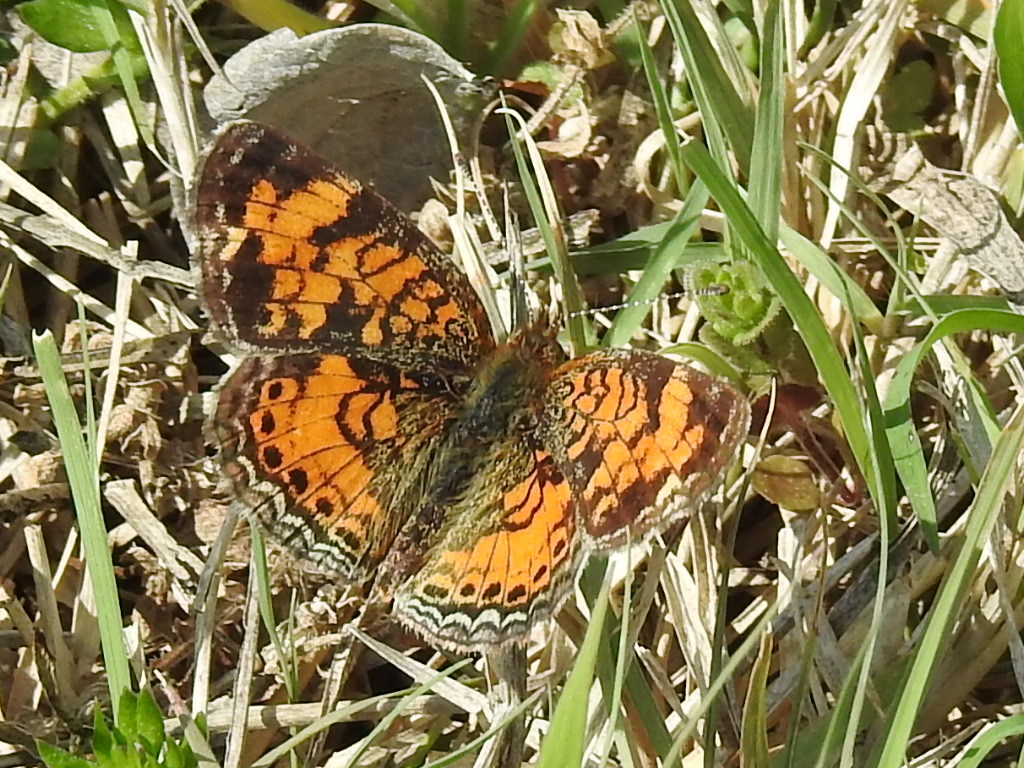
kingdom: Animalia
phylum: Arthropoda
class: Insecta
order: Lepidoptera
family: Nymphalidae
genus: Phyciodes
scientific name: Phyciodes tharos
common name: Pearl crescent
